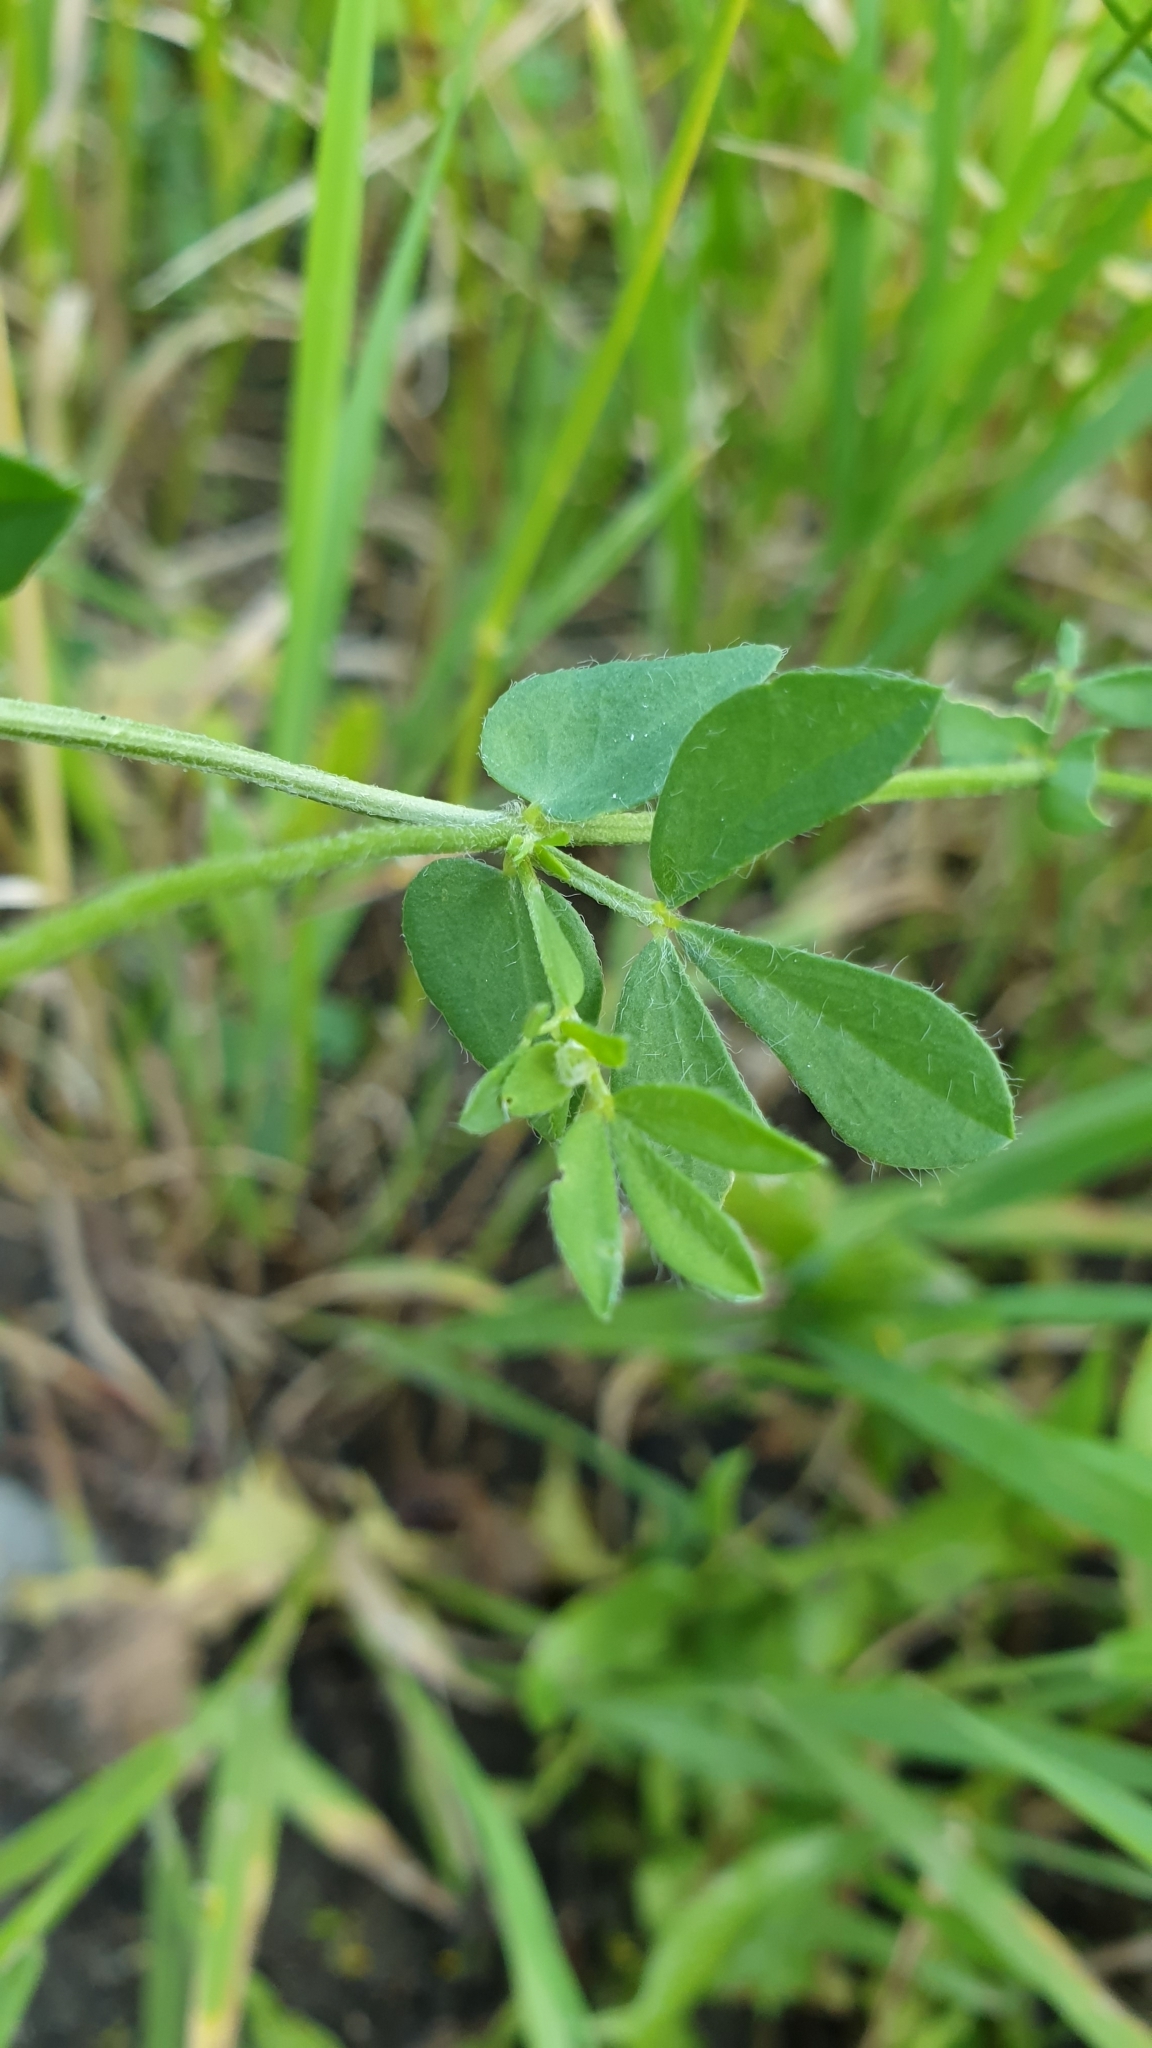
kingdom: Plantae
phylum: Tracheophyta
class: Magnoliopsida
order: Fabales
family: Fabaceae
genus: Lotus
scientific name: Lotus corniculatus
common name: Common bird's-foot-trefoil
